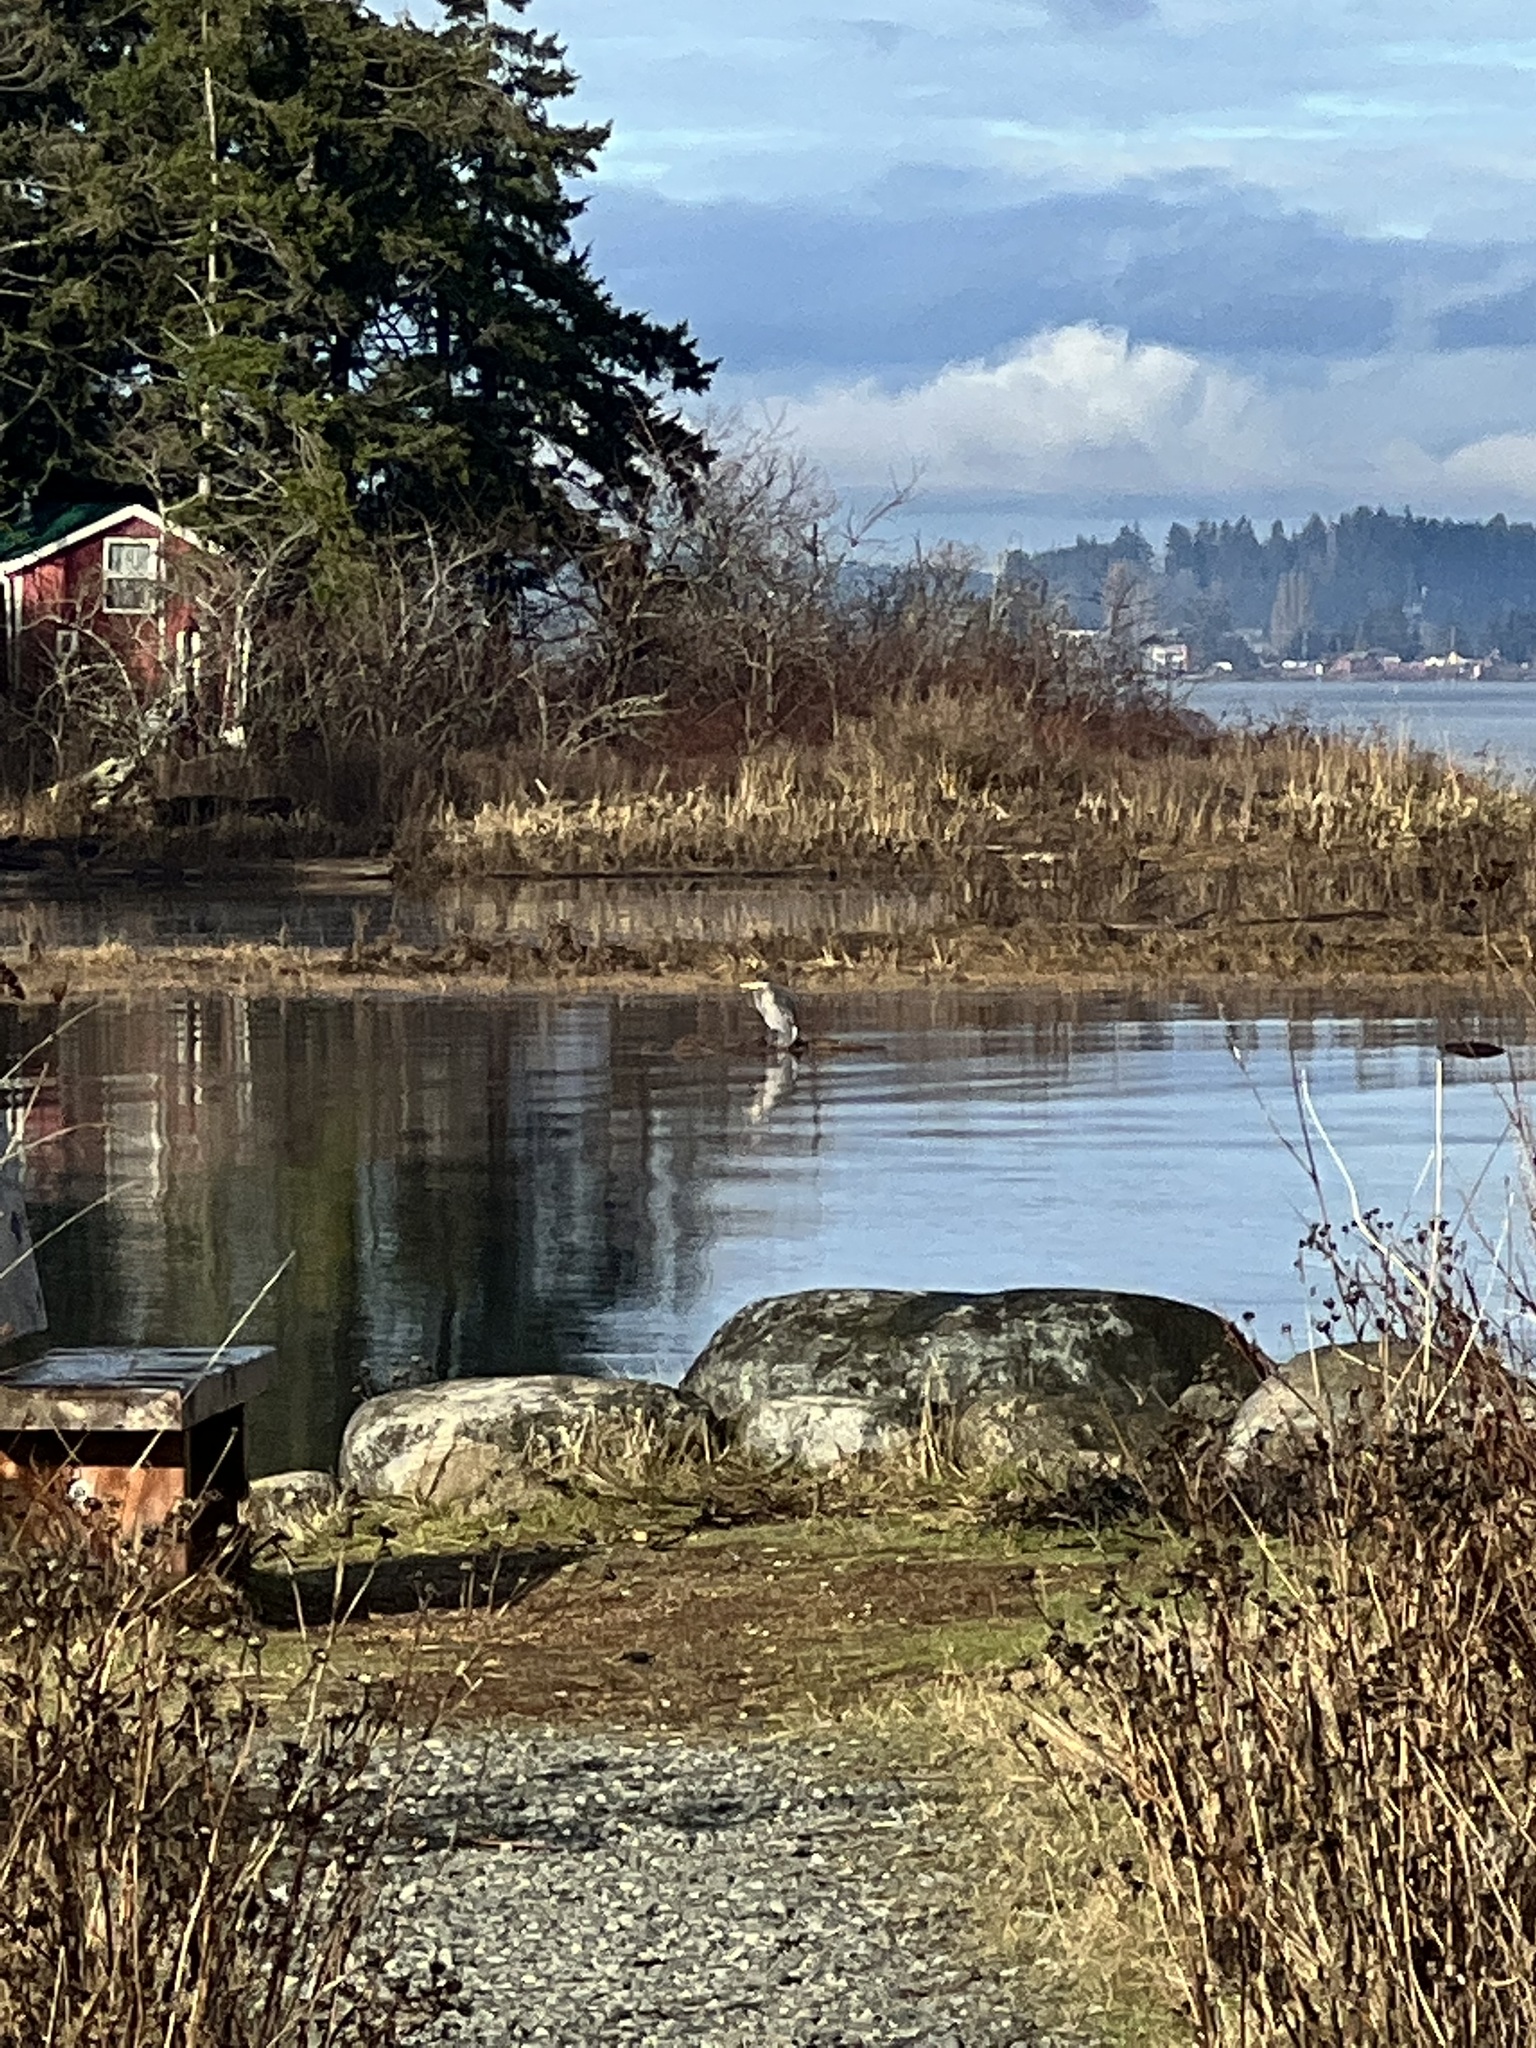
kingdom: Animalia
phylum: Chordata
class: Aves
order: Pelecaniformes
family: Ardeidae
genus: Ardea
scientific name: Ardea herodias
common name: Great blue heron
